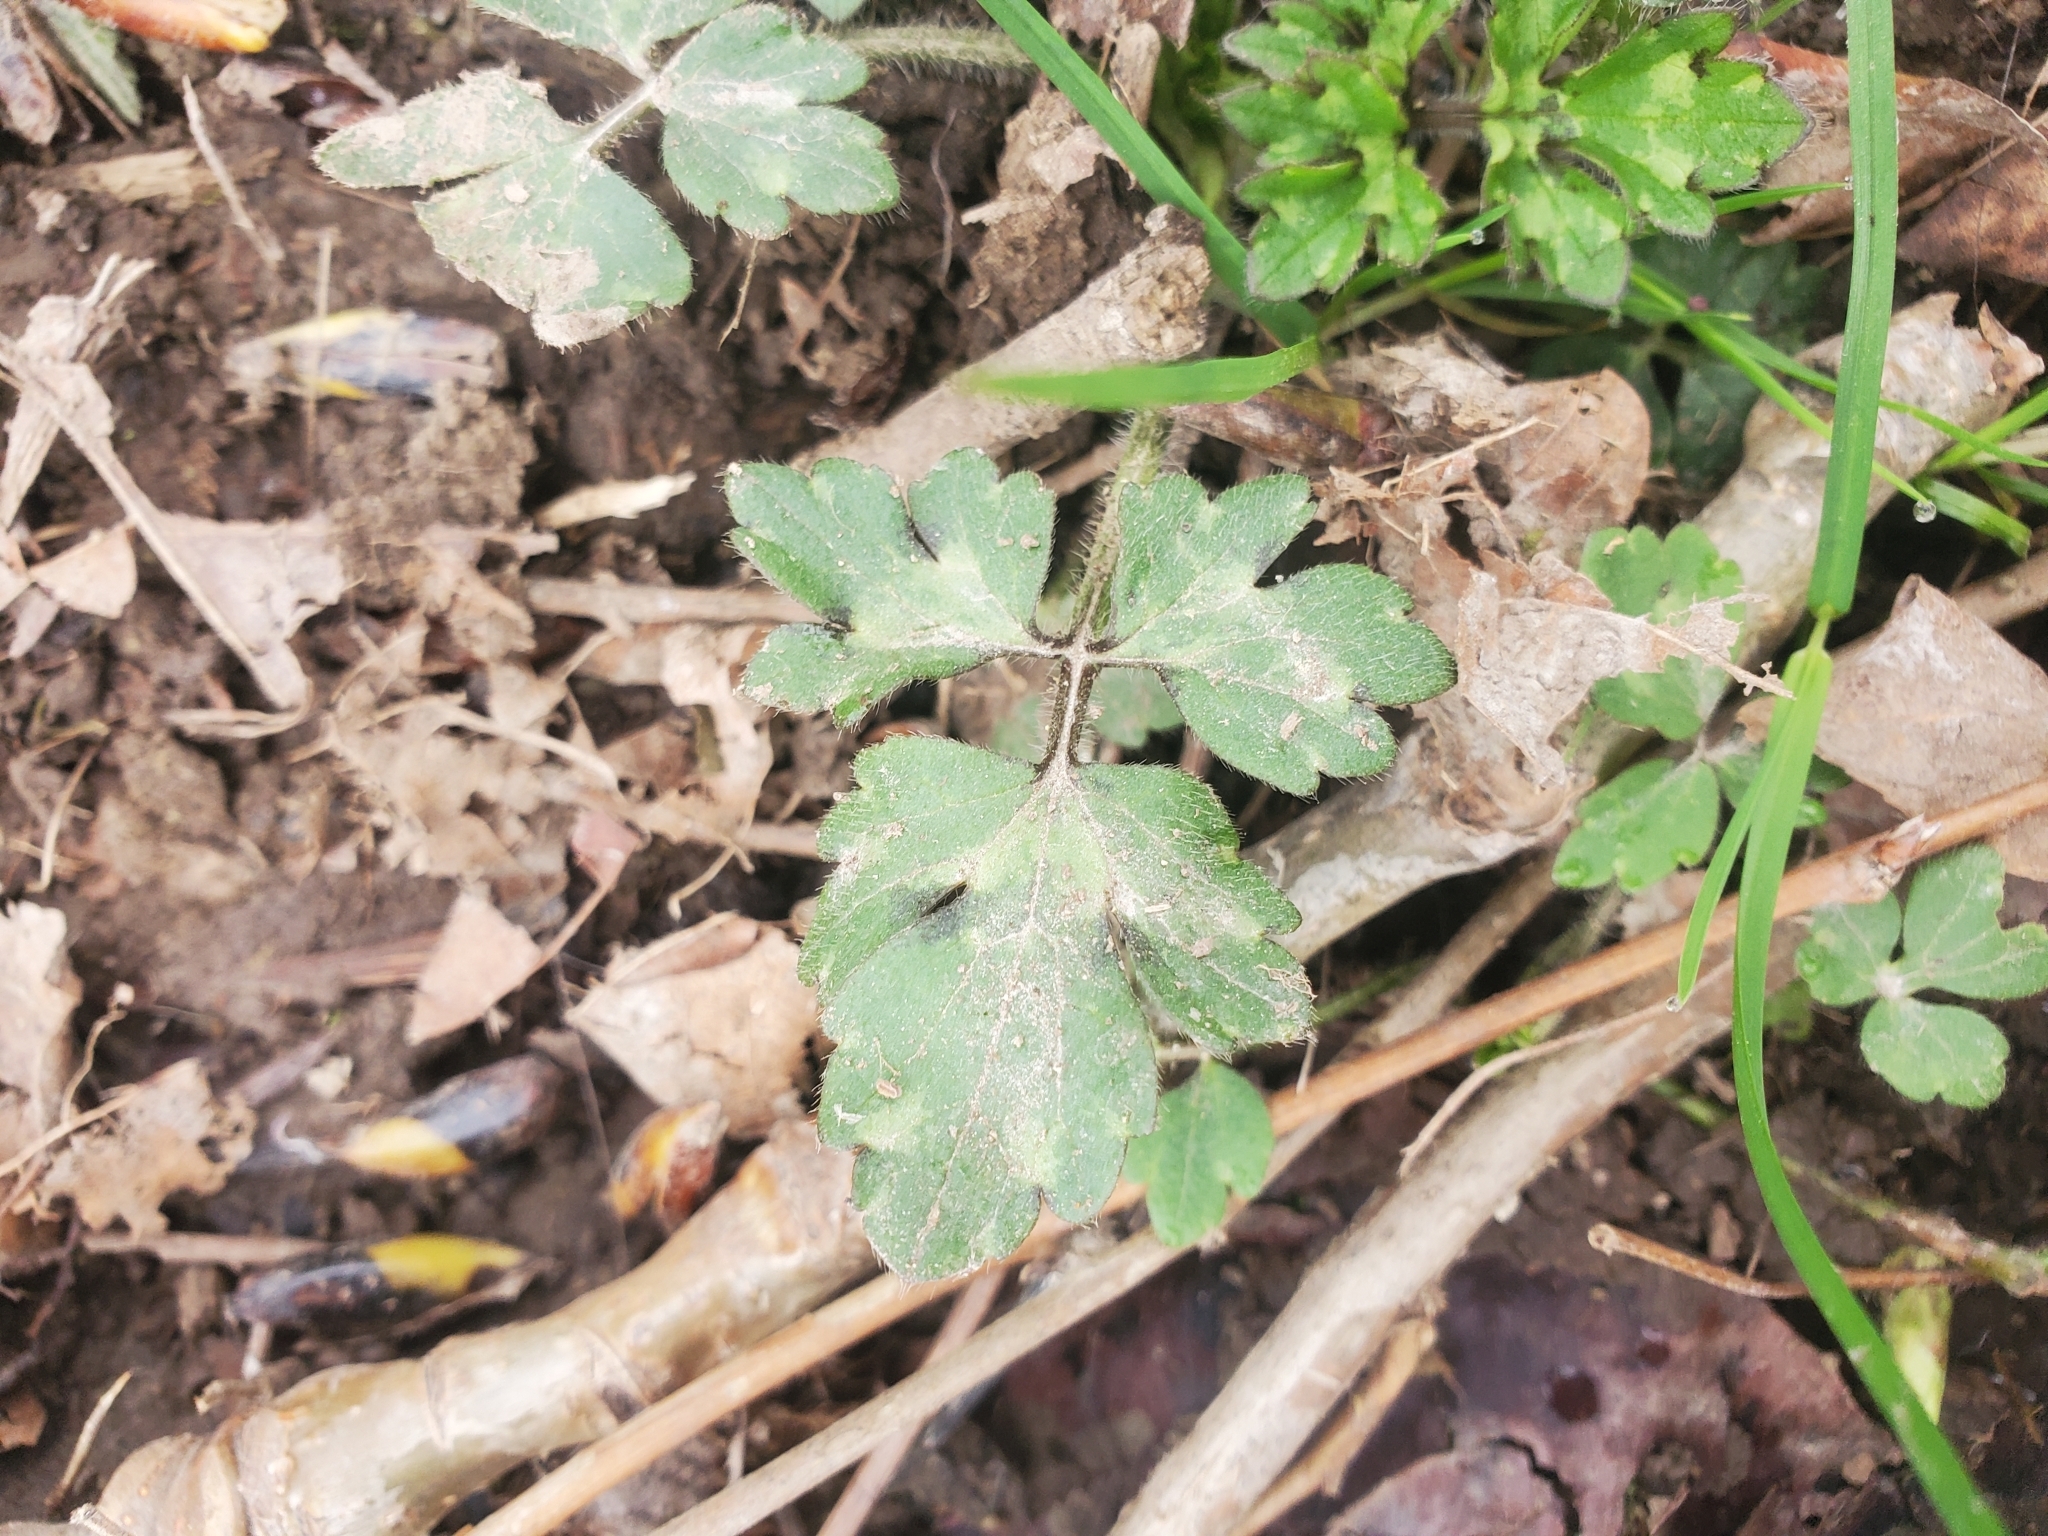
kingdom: Plantae
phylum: Tracheophyta
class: Magnoliopsida
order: Ranunculales
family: Ranunculaceae
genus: Ranunculus
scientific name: Ranunculus repens
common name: Creeping buttercup
